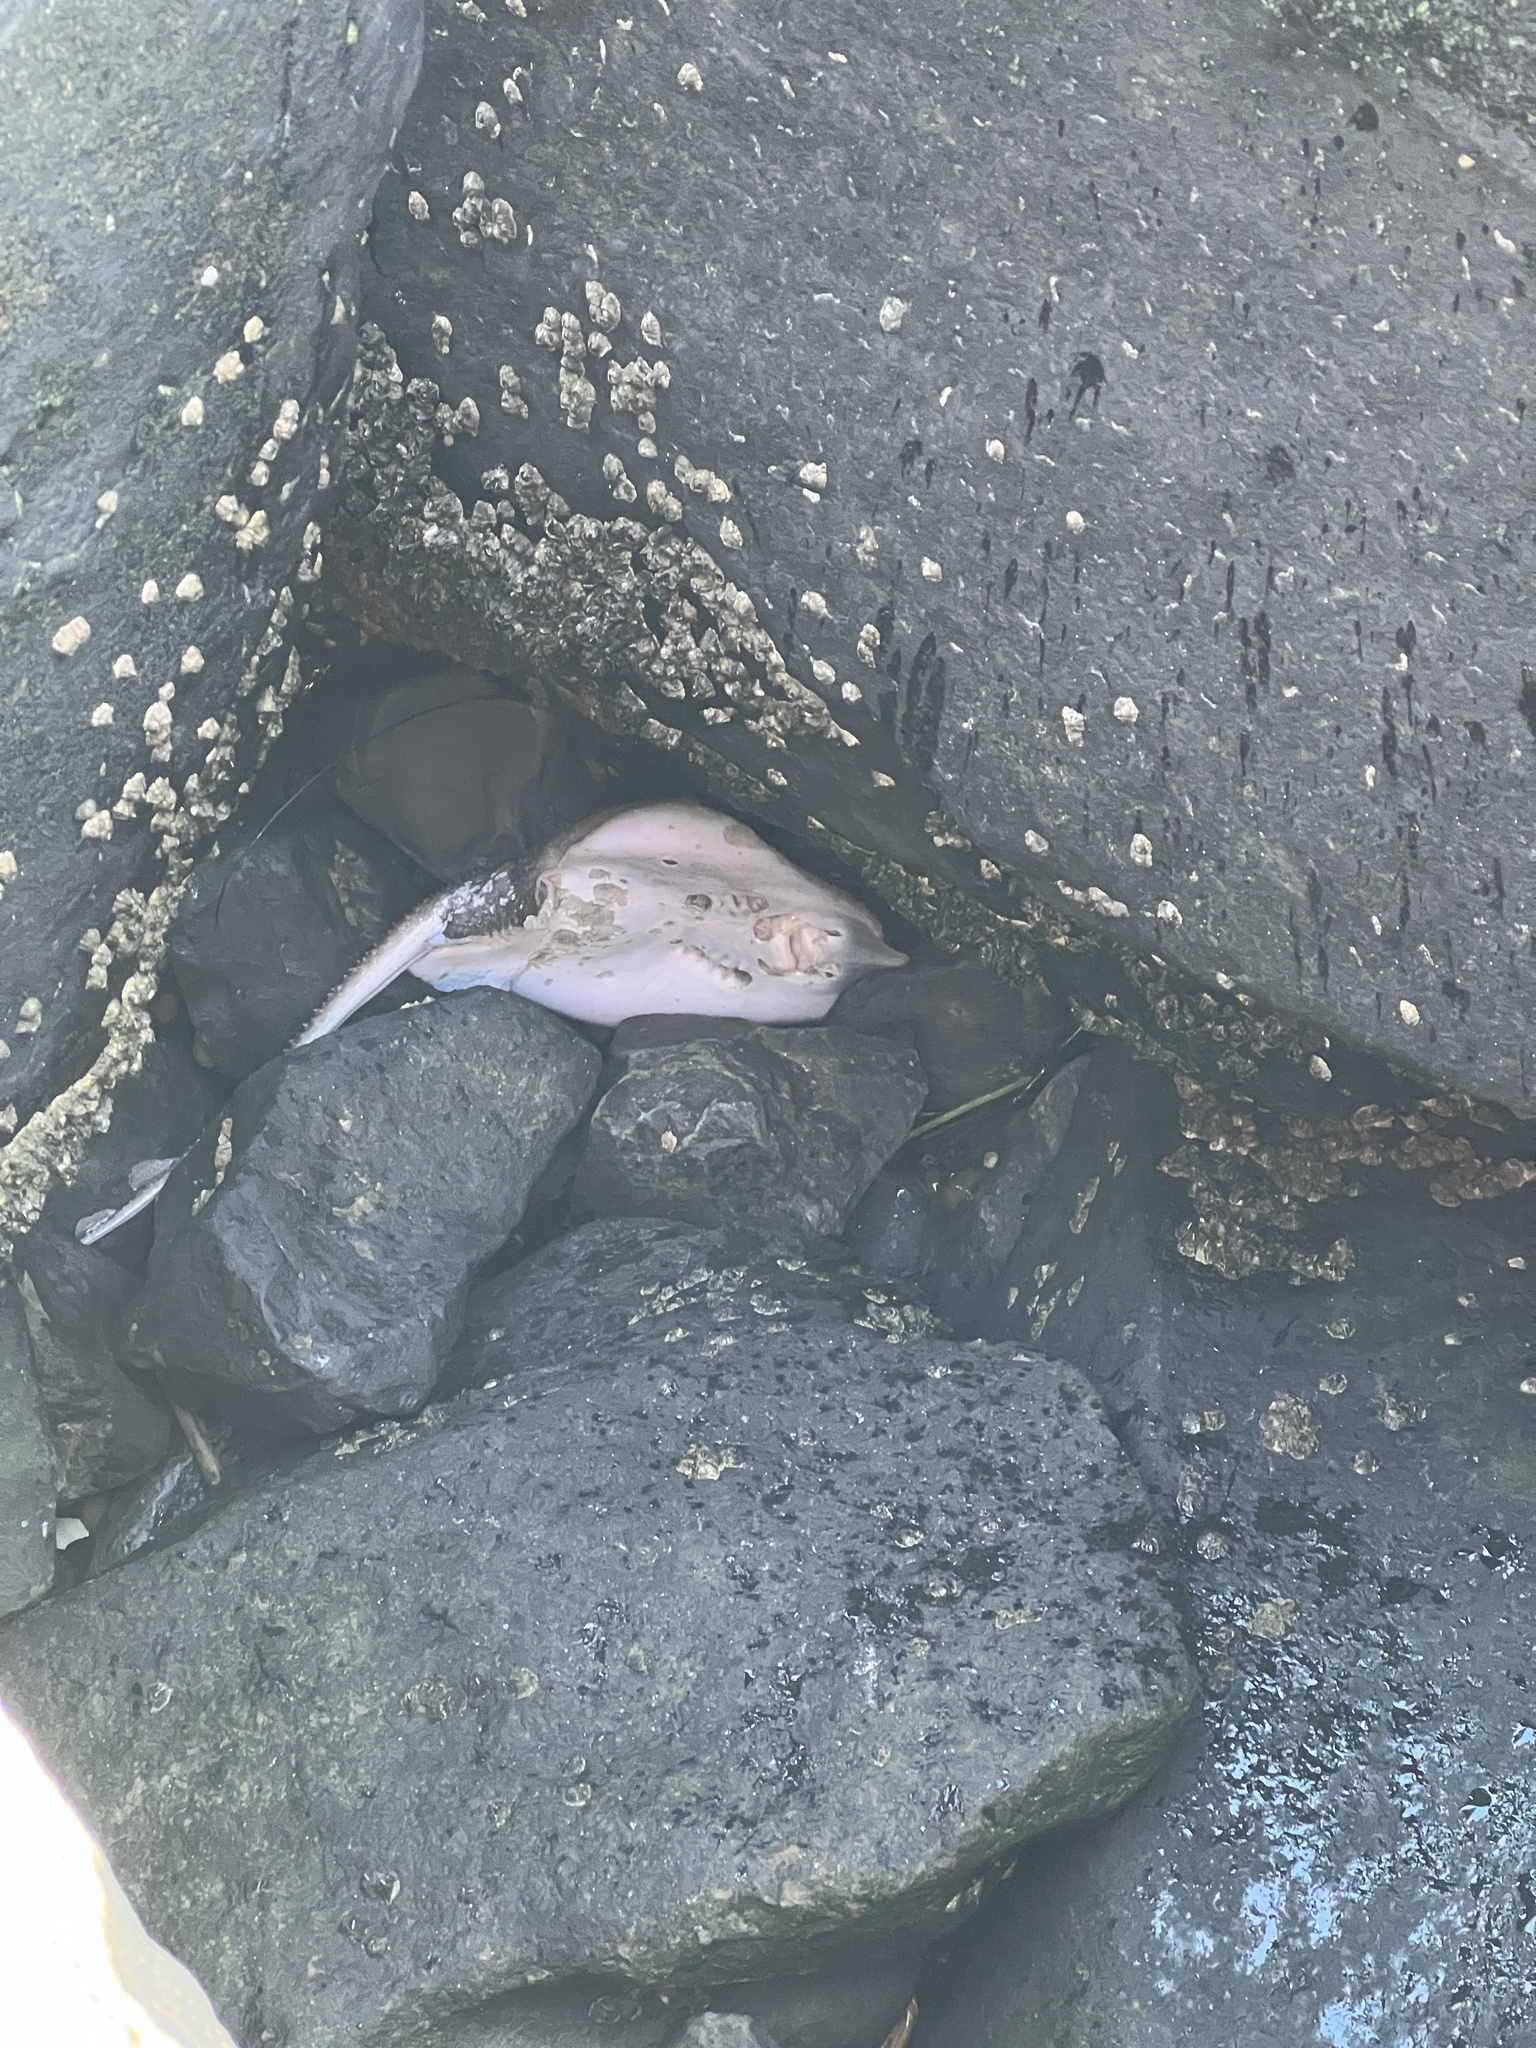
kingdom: Animalia
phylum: Chordata
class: Elasmobranchii
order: Rajiformes
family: Rajidae
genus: Leucoraja
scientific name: Leucoraja erinacea
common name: Little skate
